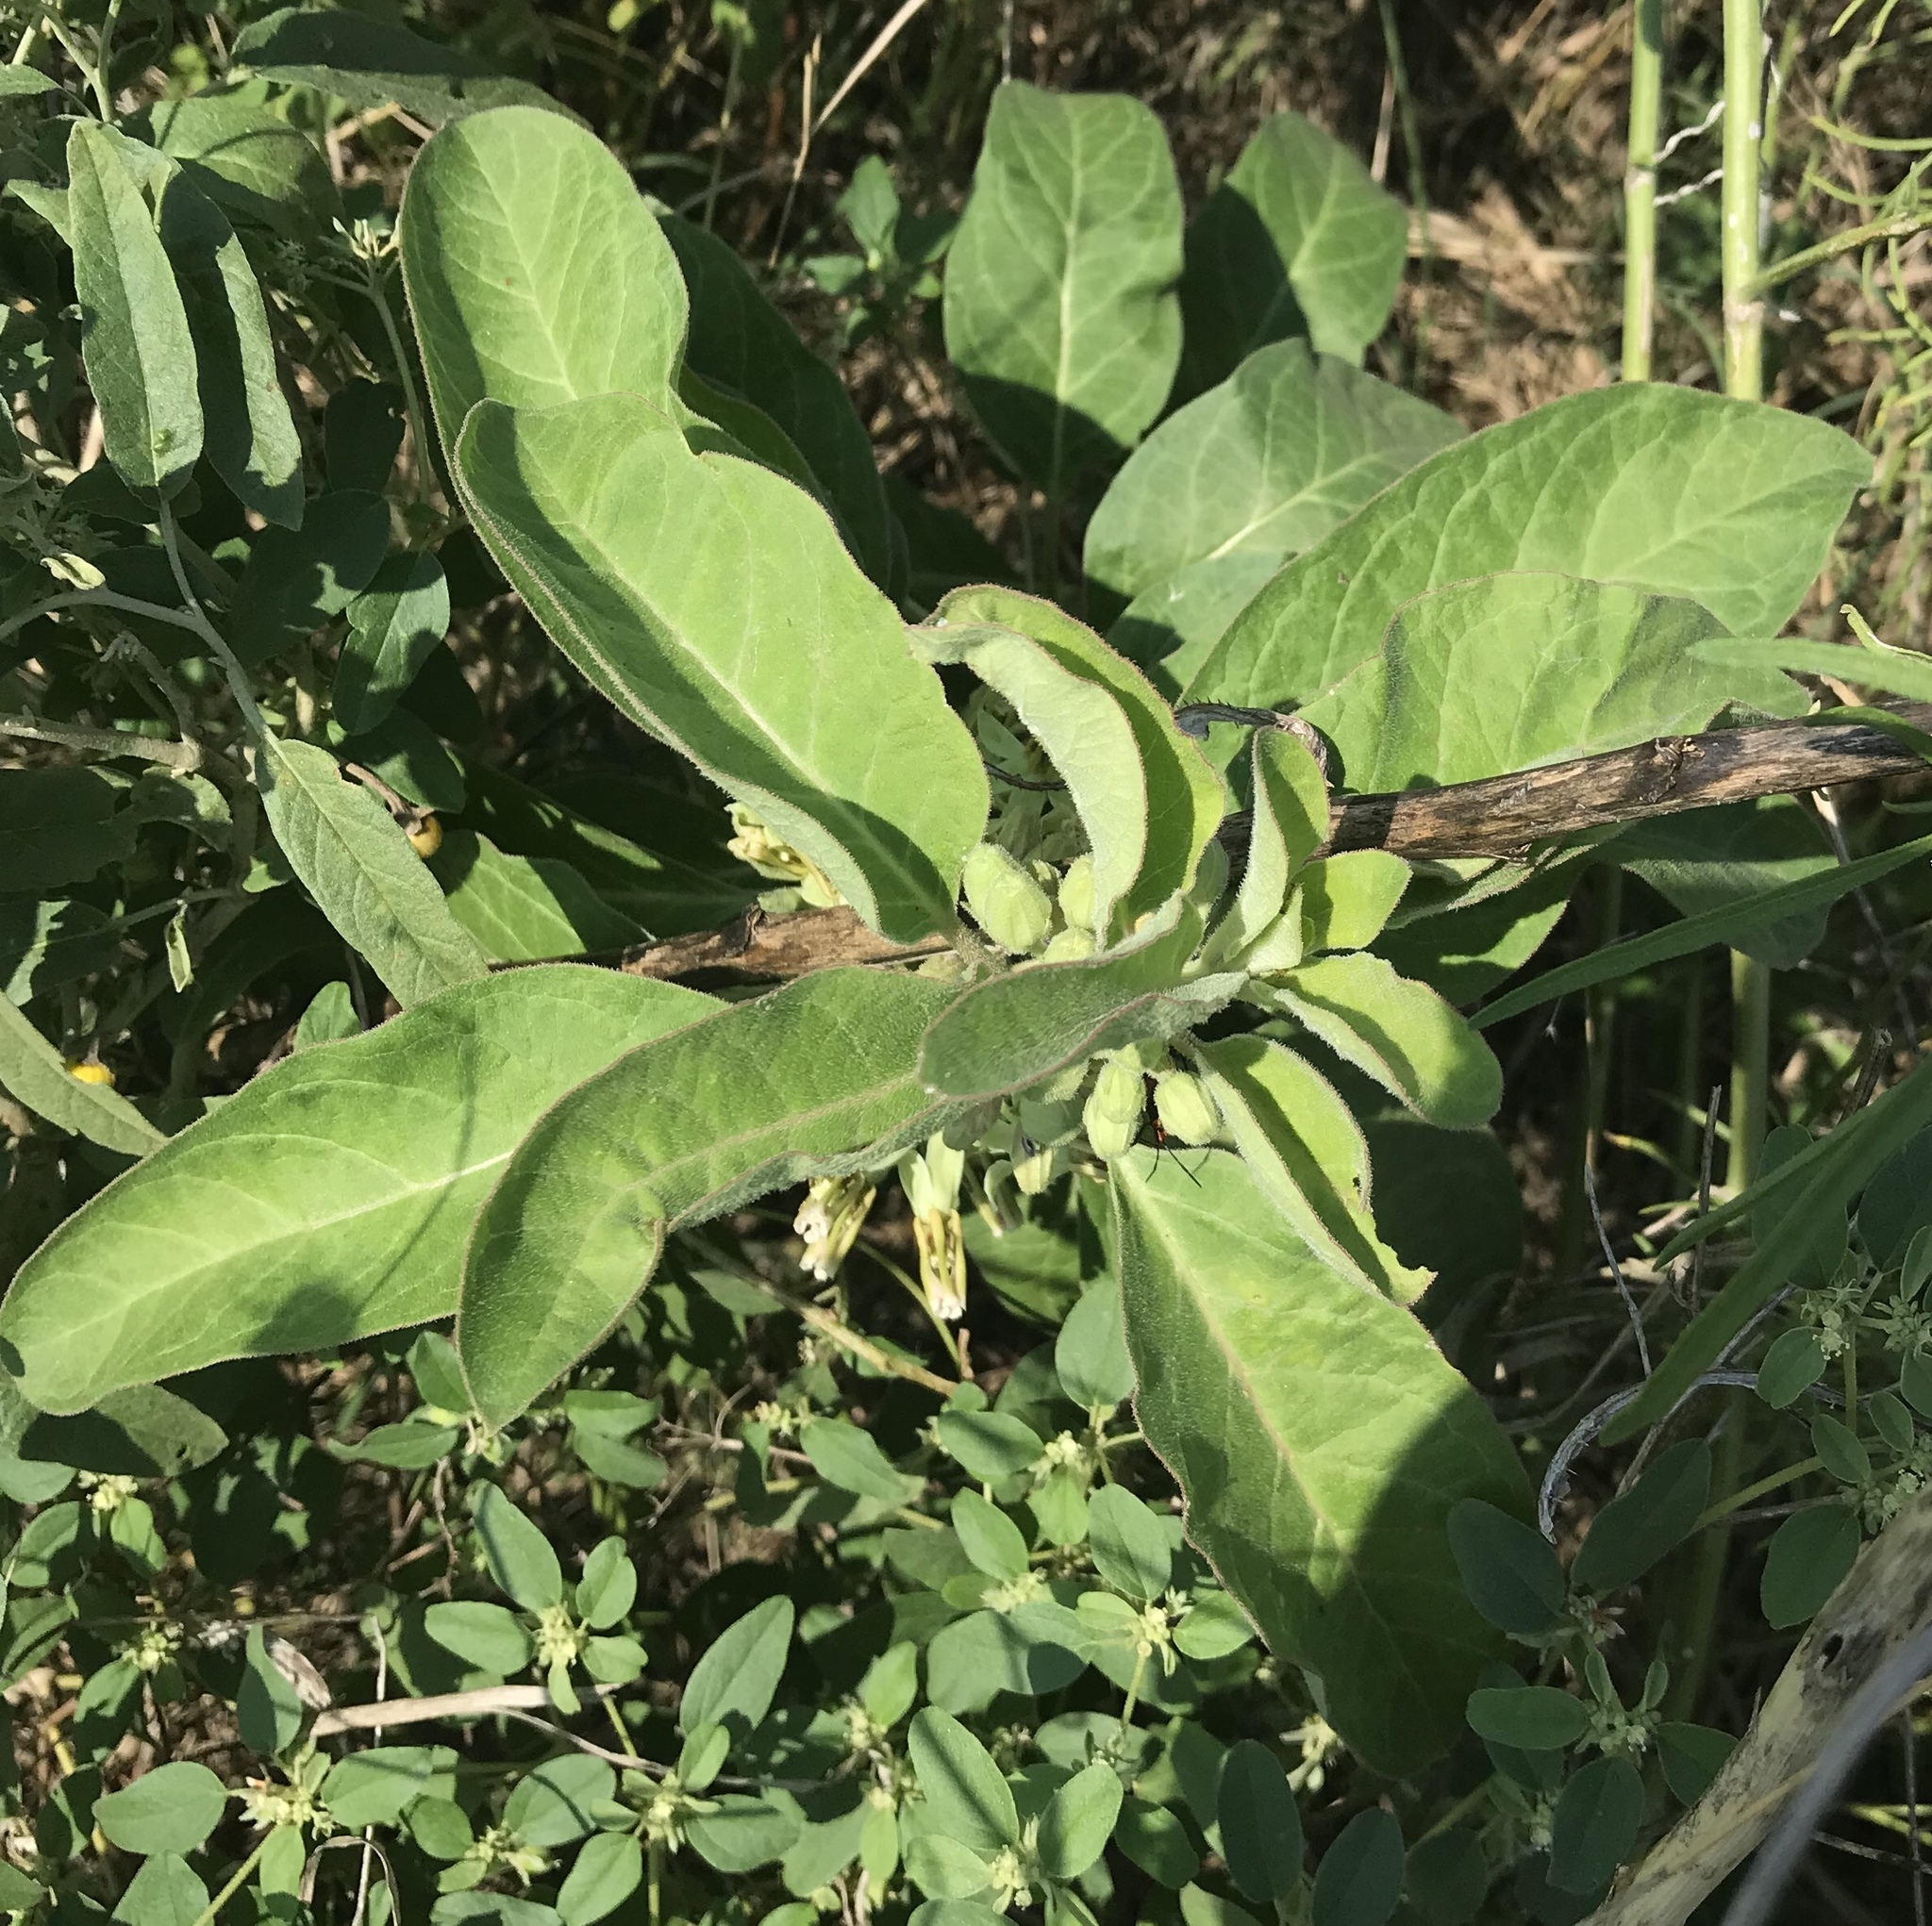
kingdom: Plantae
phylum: Tracheophyta
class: Magnoliopsida
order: Gentianales
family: Apocynaceae
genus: Asclepias
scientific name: Asclepias oenotheroides
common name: Zizotes milkweed
